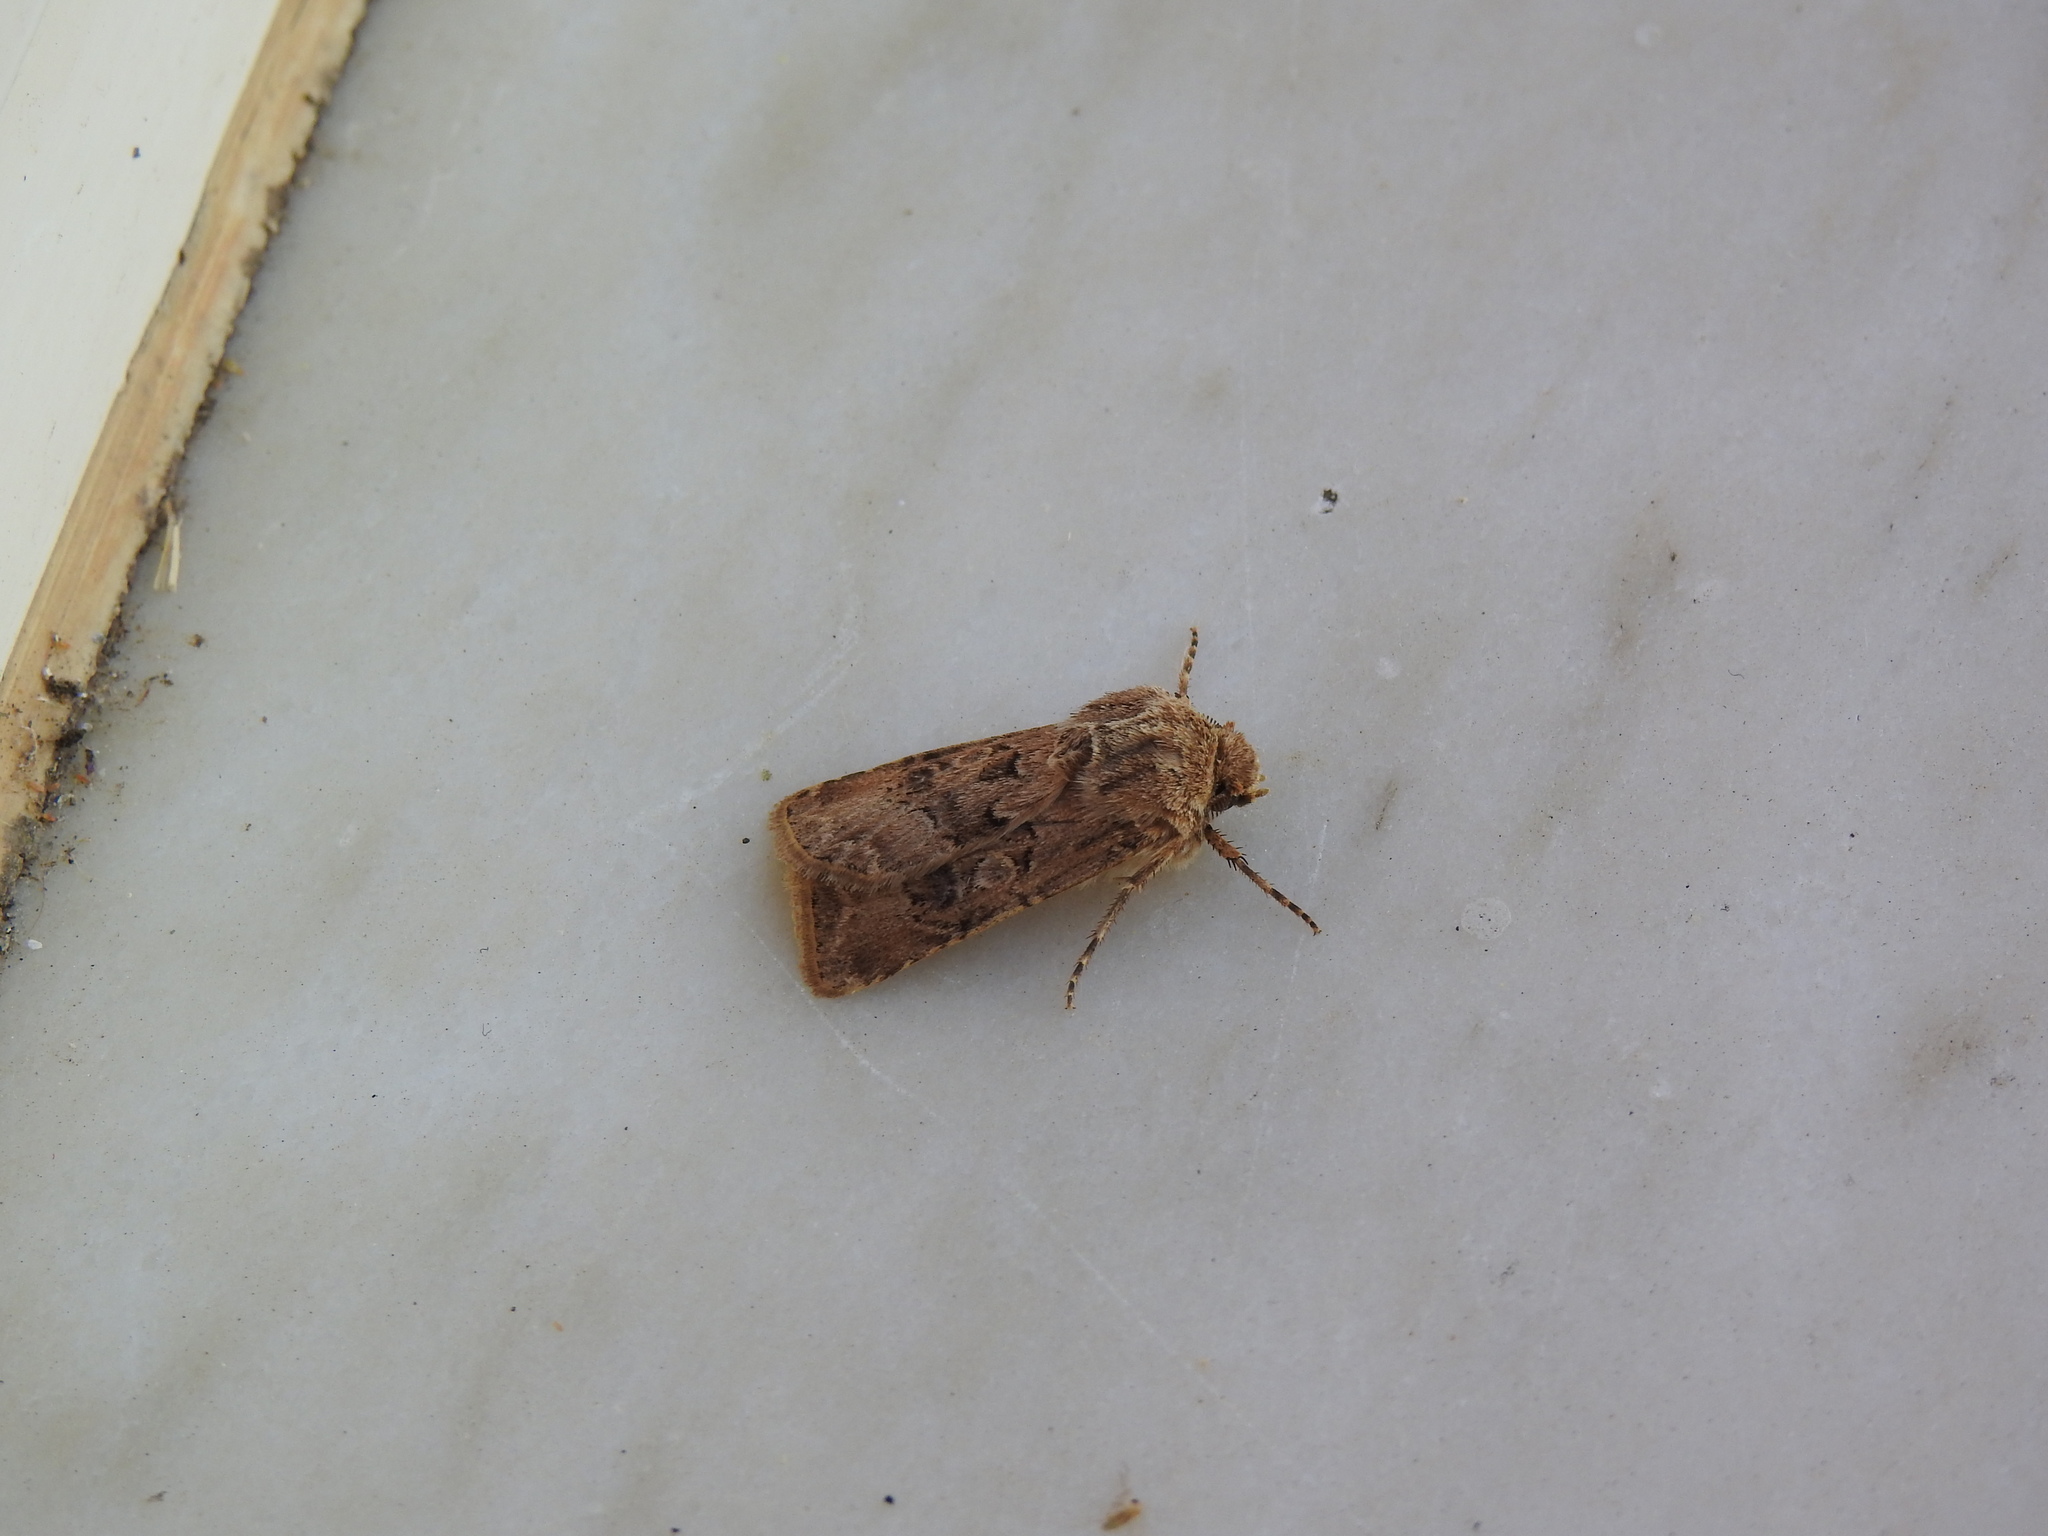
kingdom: Animalia
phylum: Arthropoda
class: Insecta
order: Lepidoptera
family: Noctuidae
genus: Agrotis
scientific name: Agrotis bigramma
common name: Great dart
